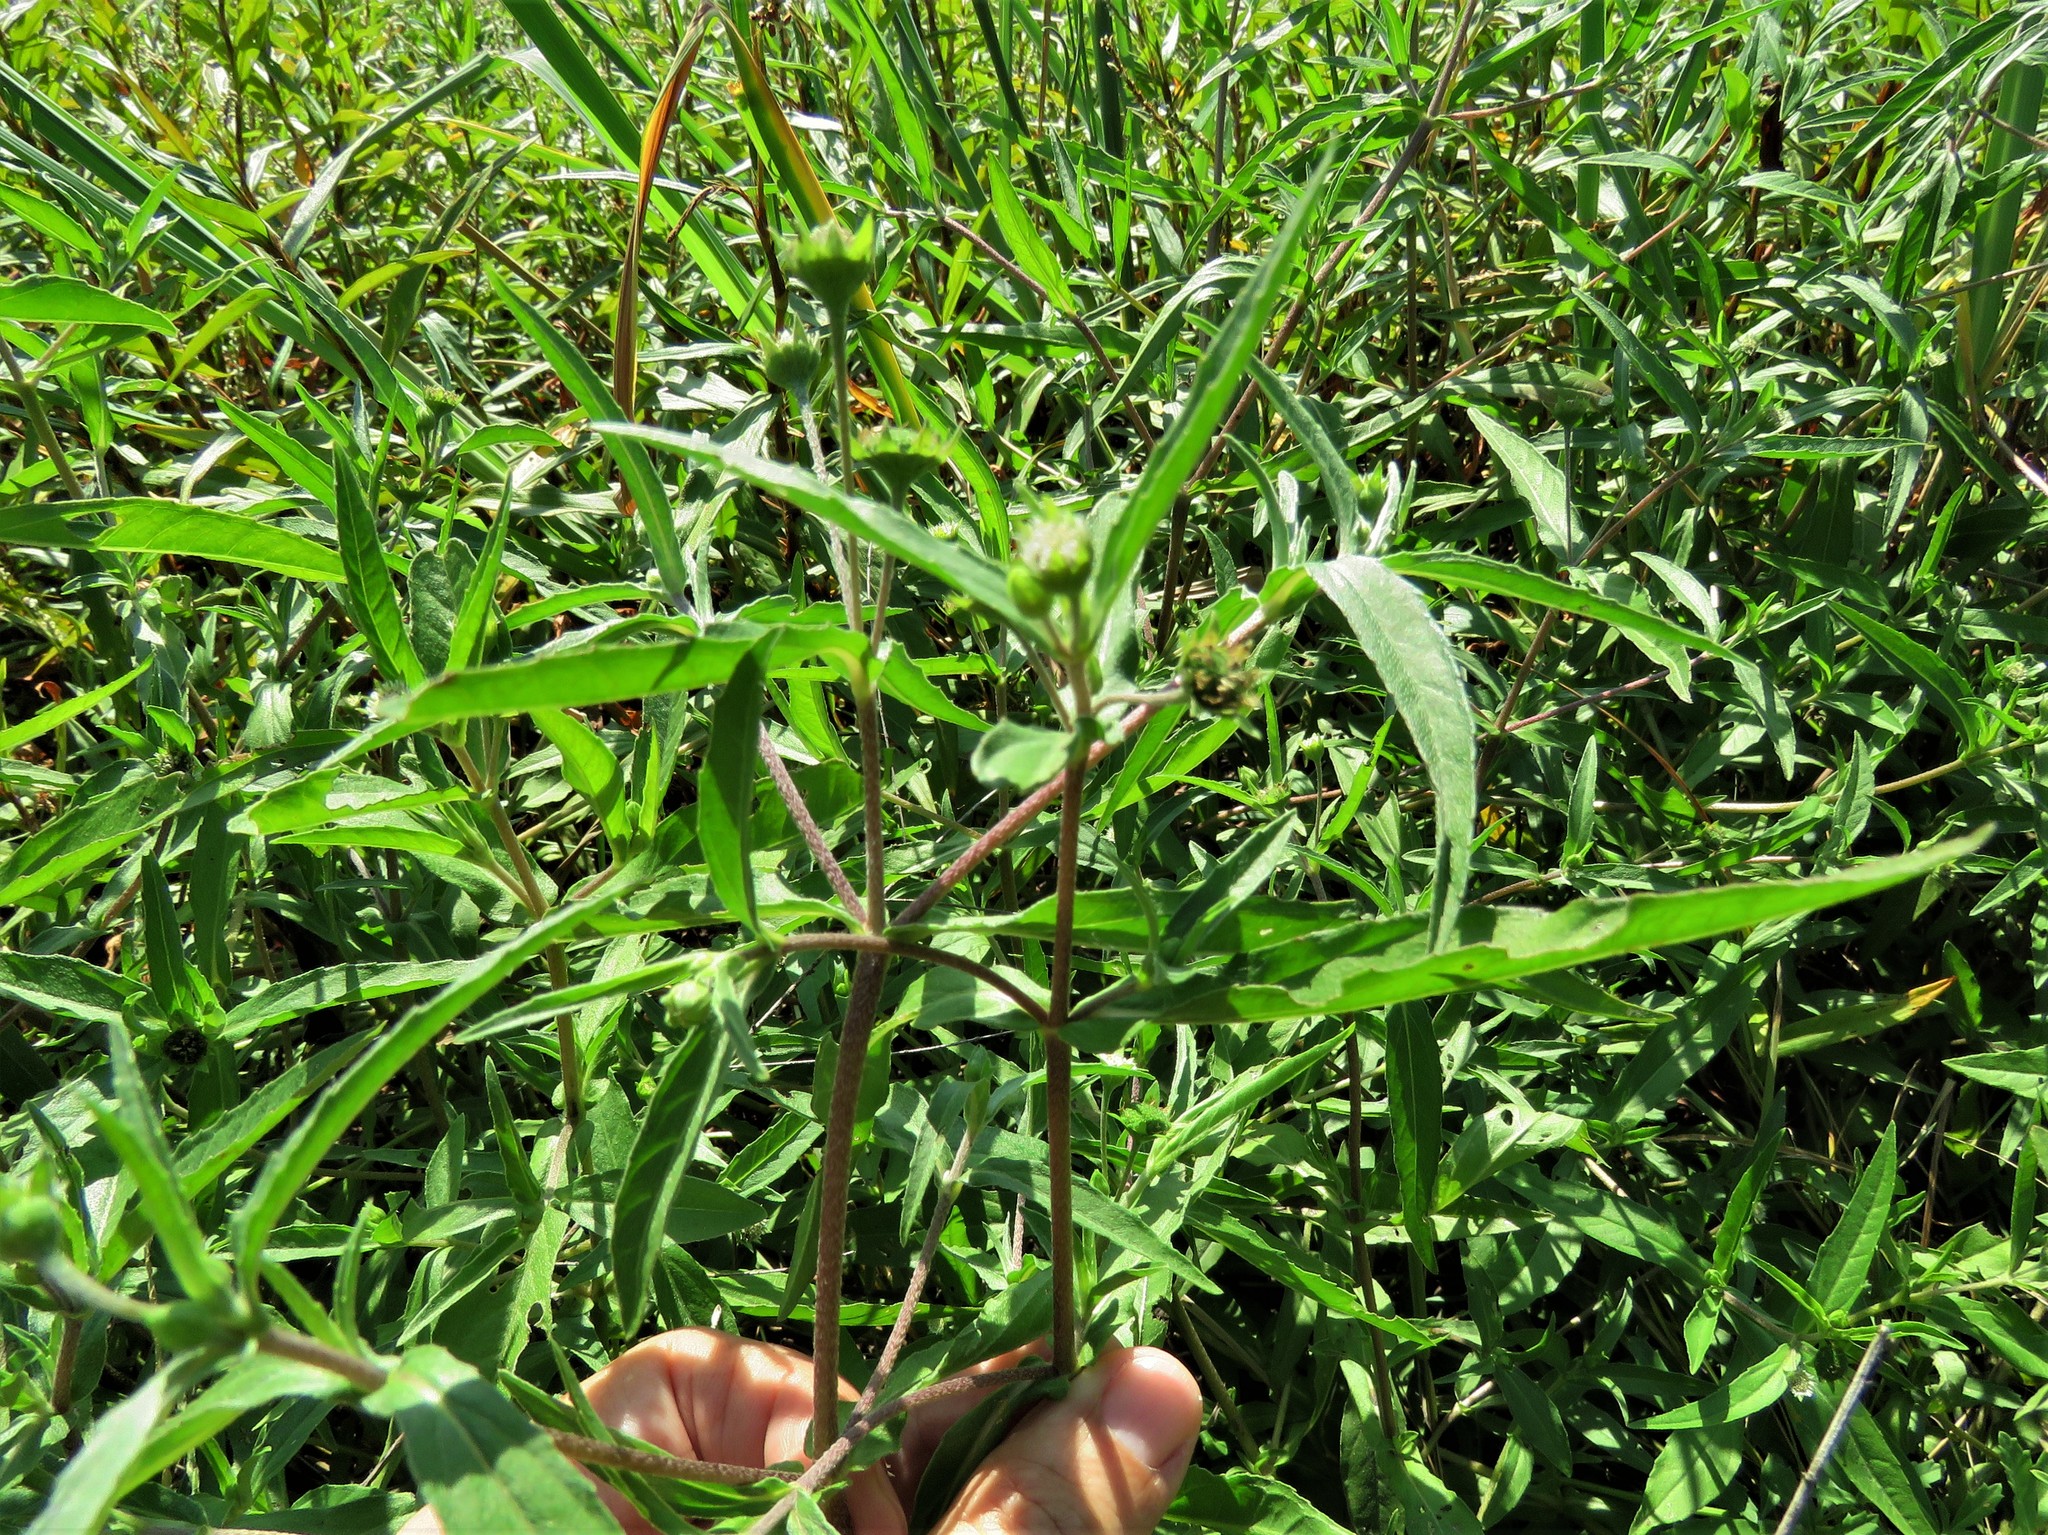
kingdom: Plantae
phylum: Tracheophyta
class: Magnoliopsida
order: Asterales
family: Asteraceae
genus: Eclipta
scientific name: Eclipta prostrata
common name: False daisy
